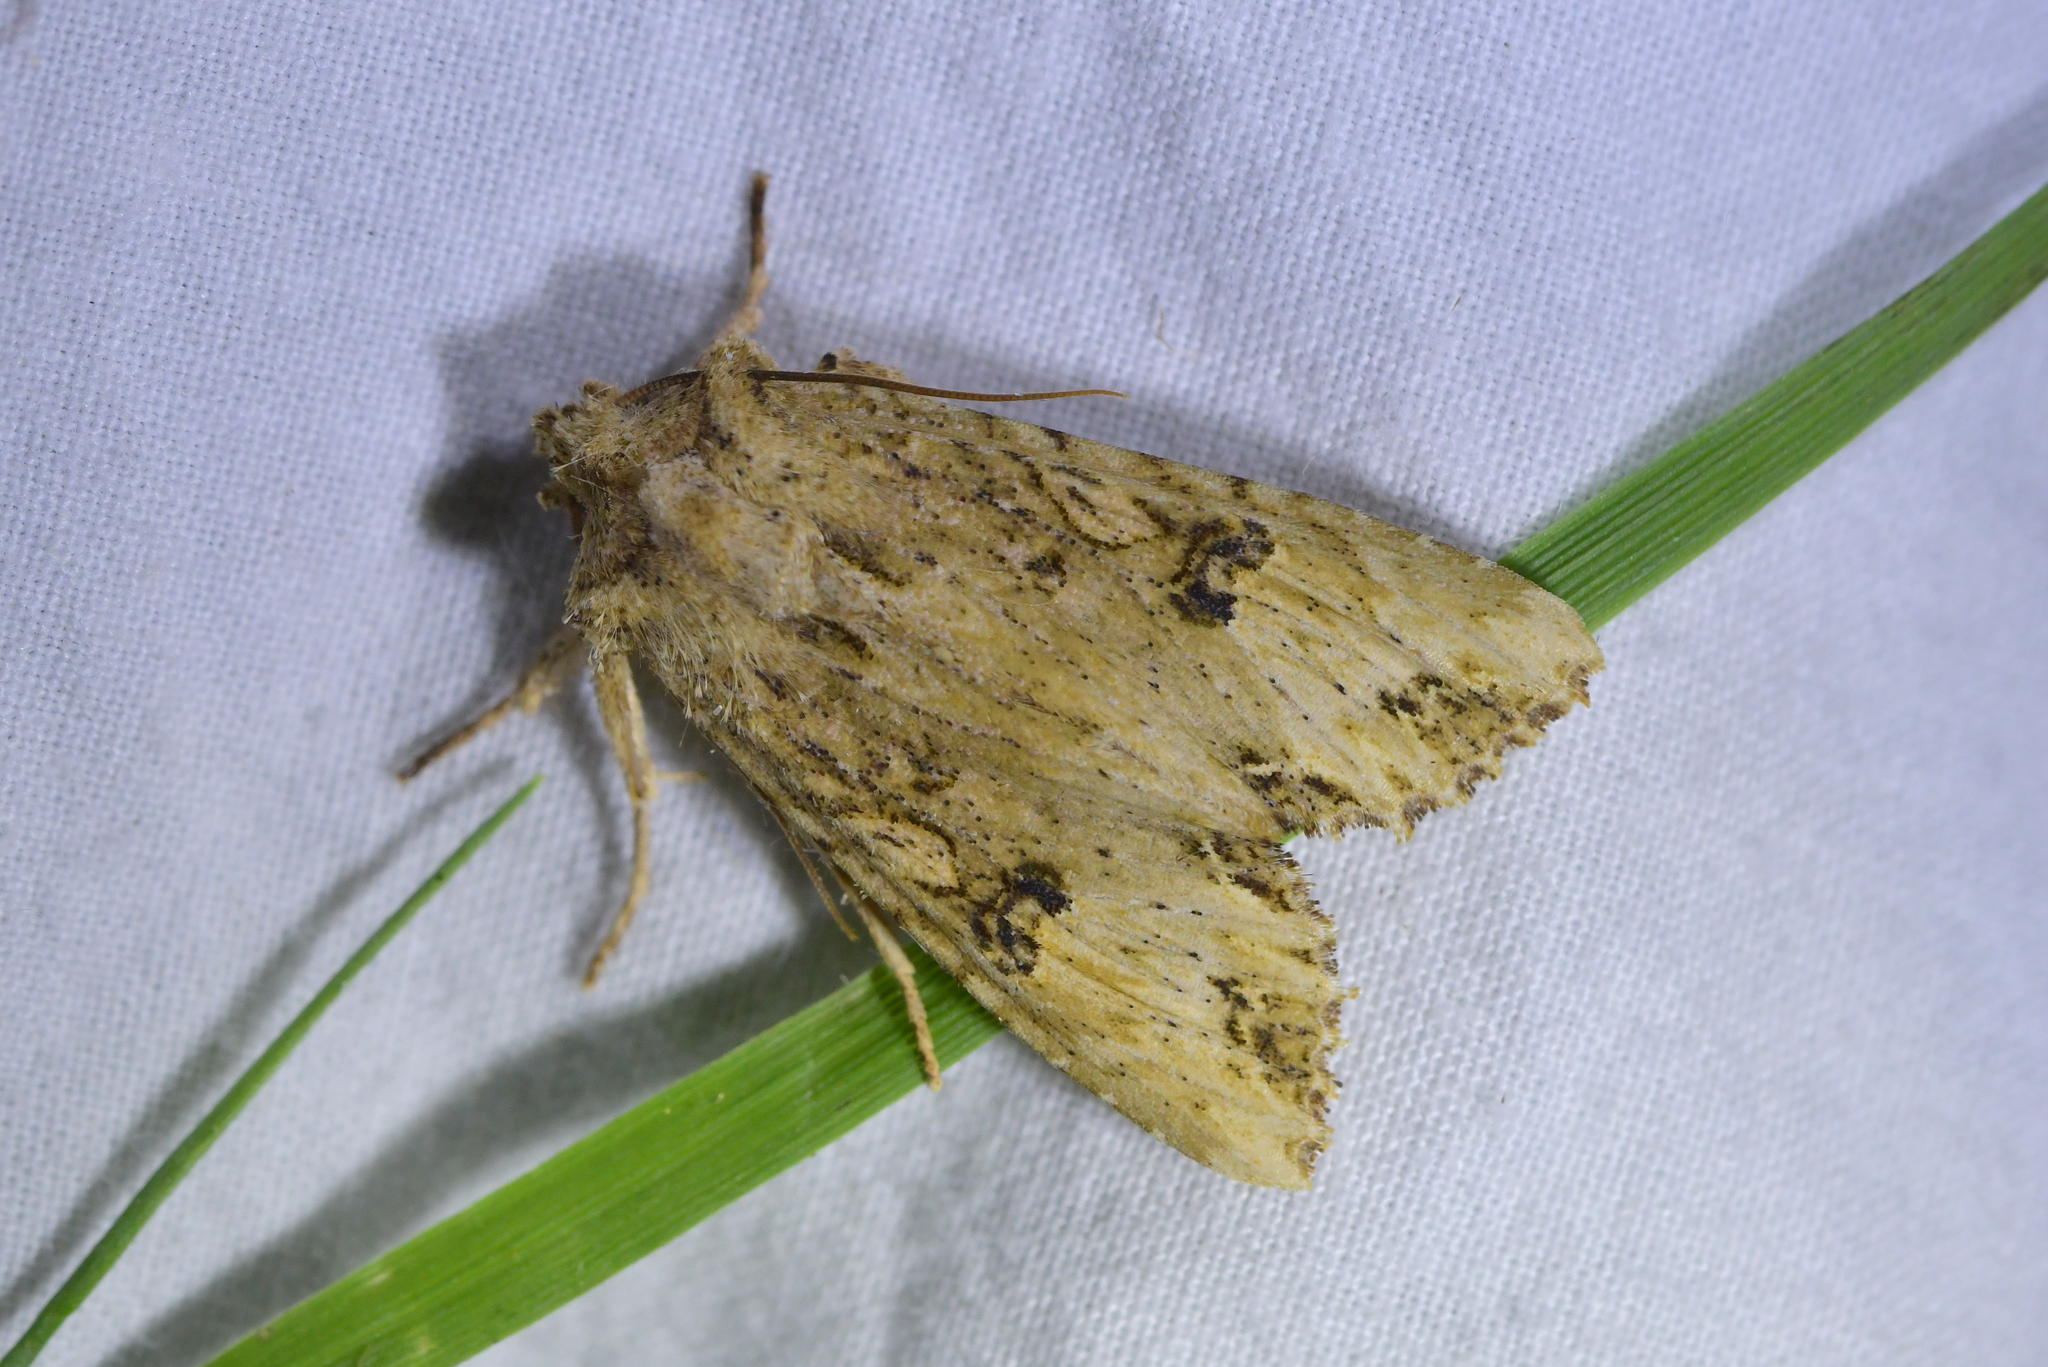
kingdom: Animalia
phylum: Arthropoda
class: Insecta
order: Lepidoptera
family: Noctuidae
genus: Meterana
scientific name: Meterana pascoei
